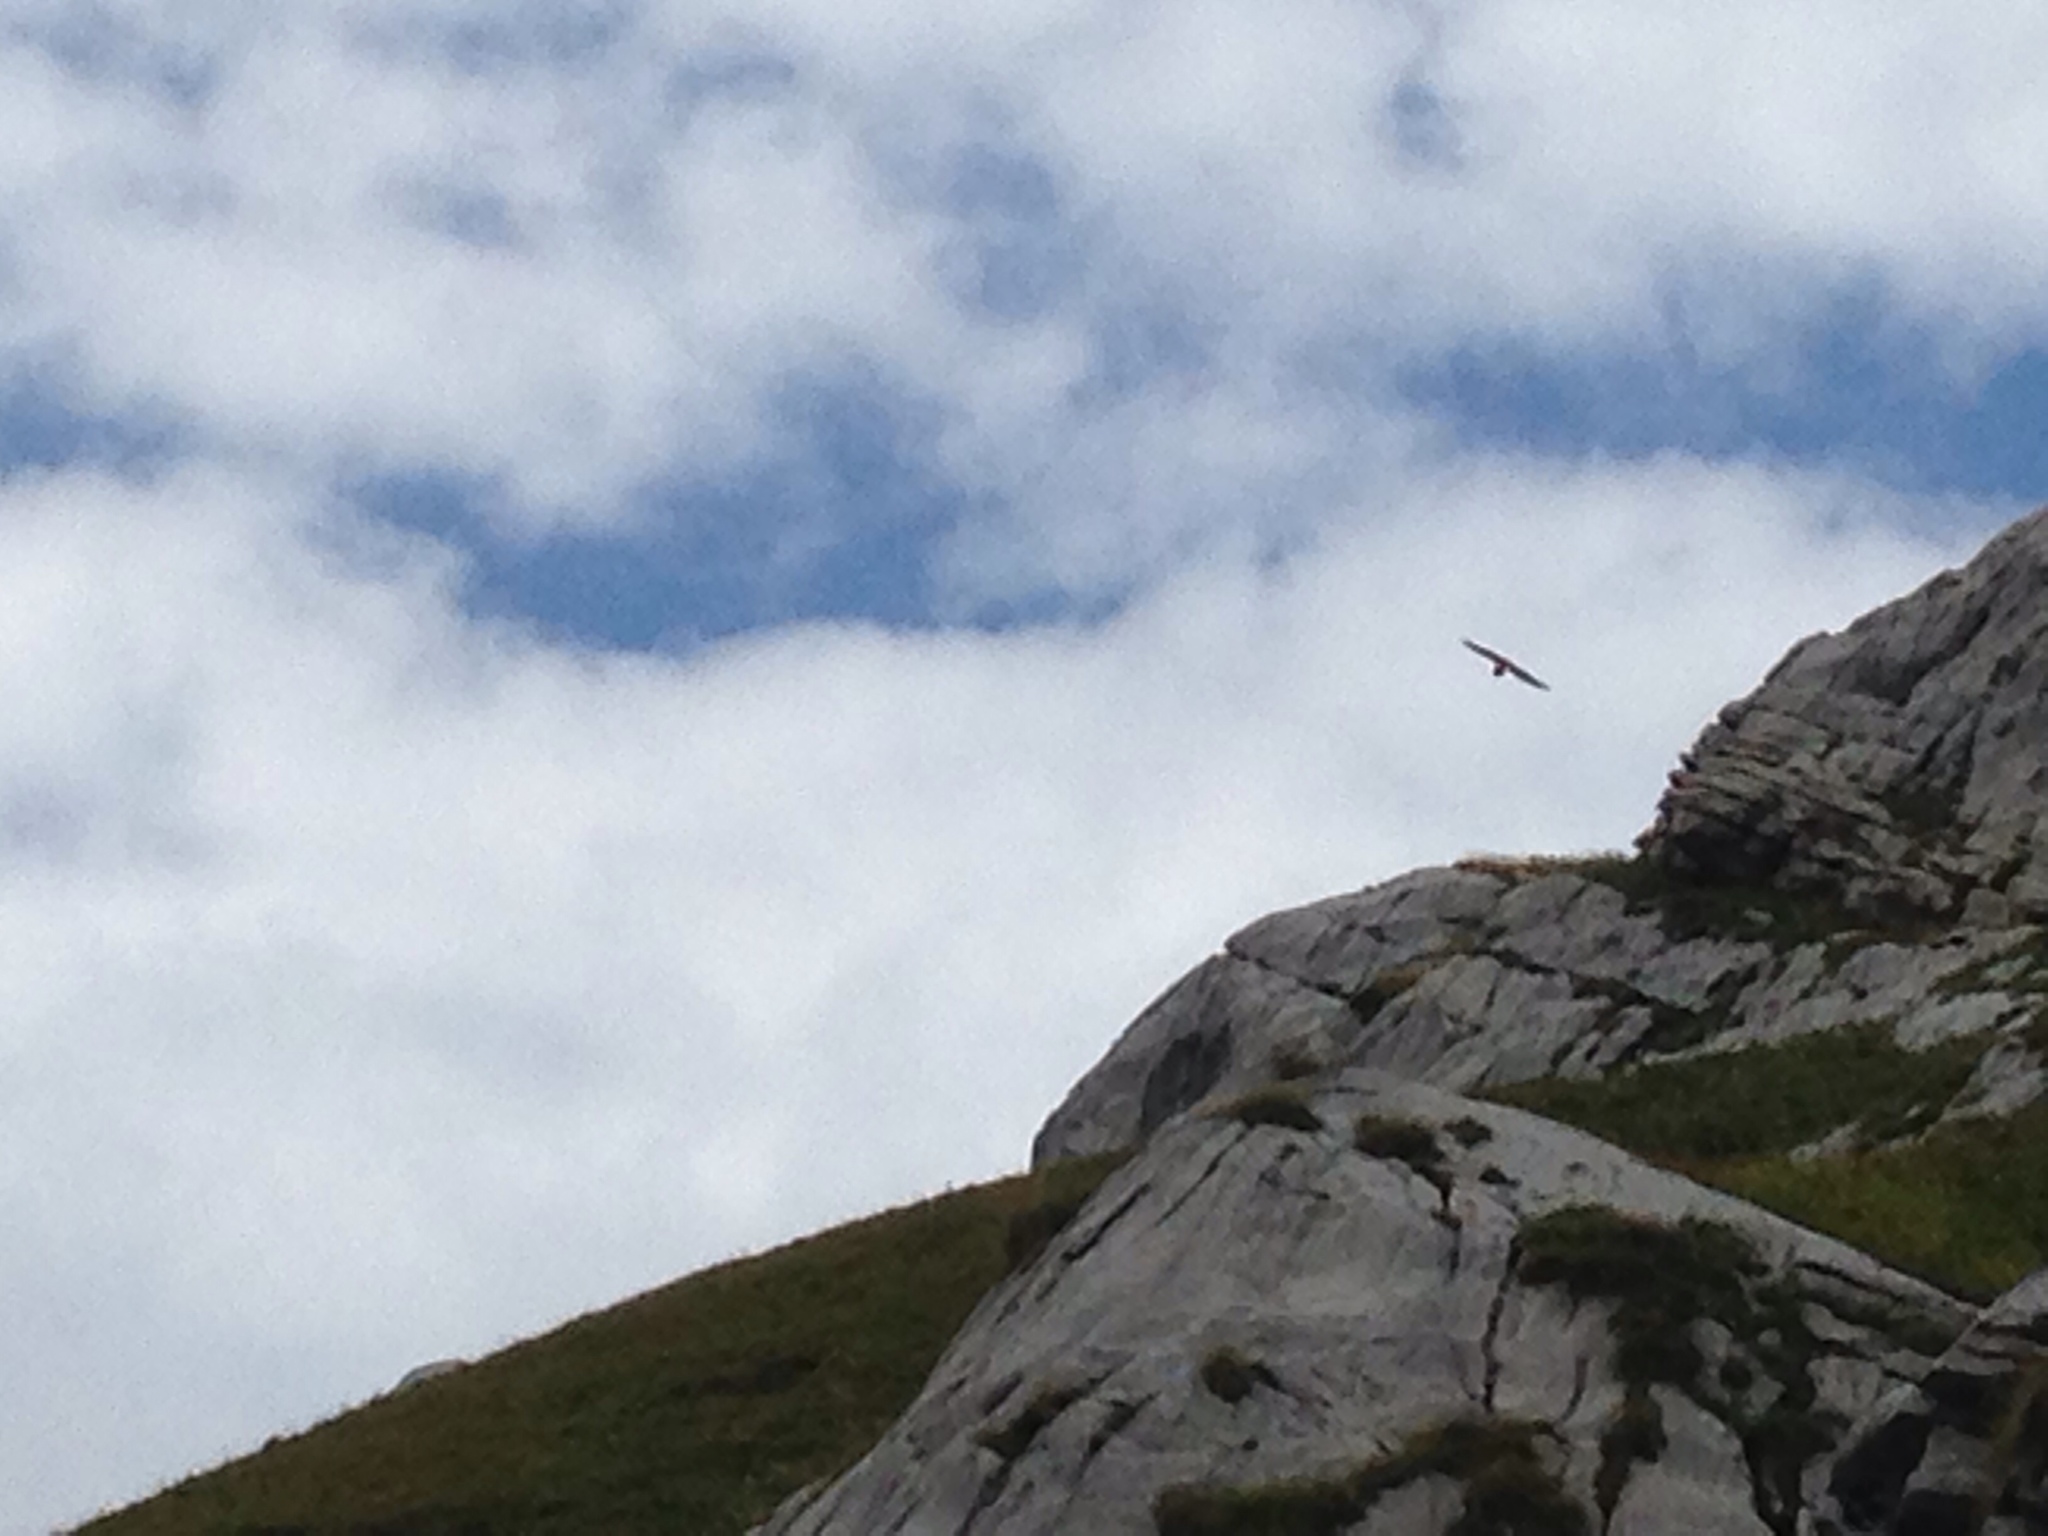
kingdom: Animalia
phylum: Chordata
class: Aves
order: Accipitriformes
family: Accipitridae
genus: Gypaetus
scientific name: Gypaetus barbatus
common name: Bearded vulture
